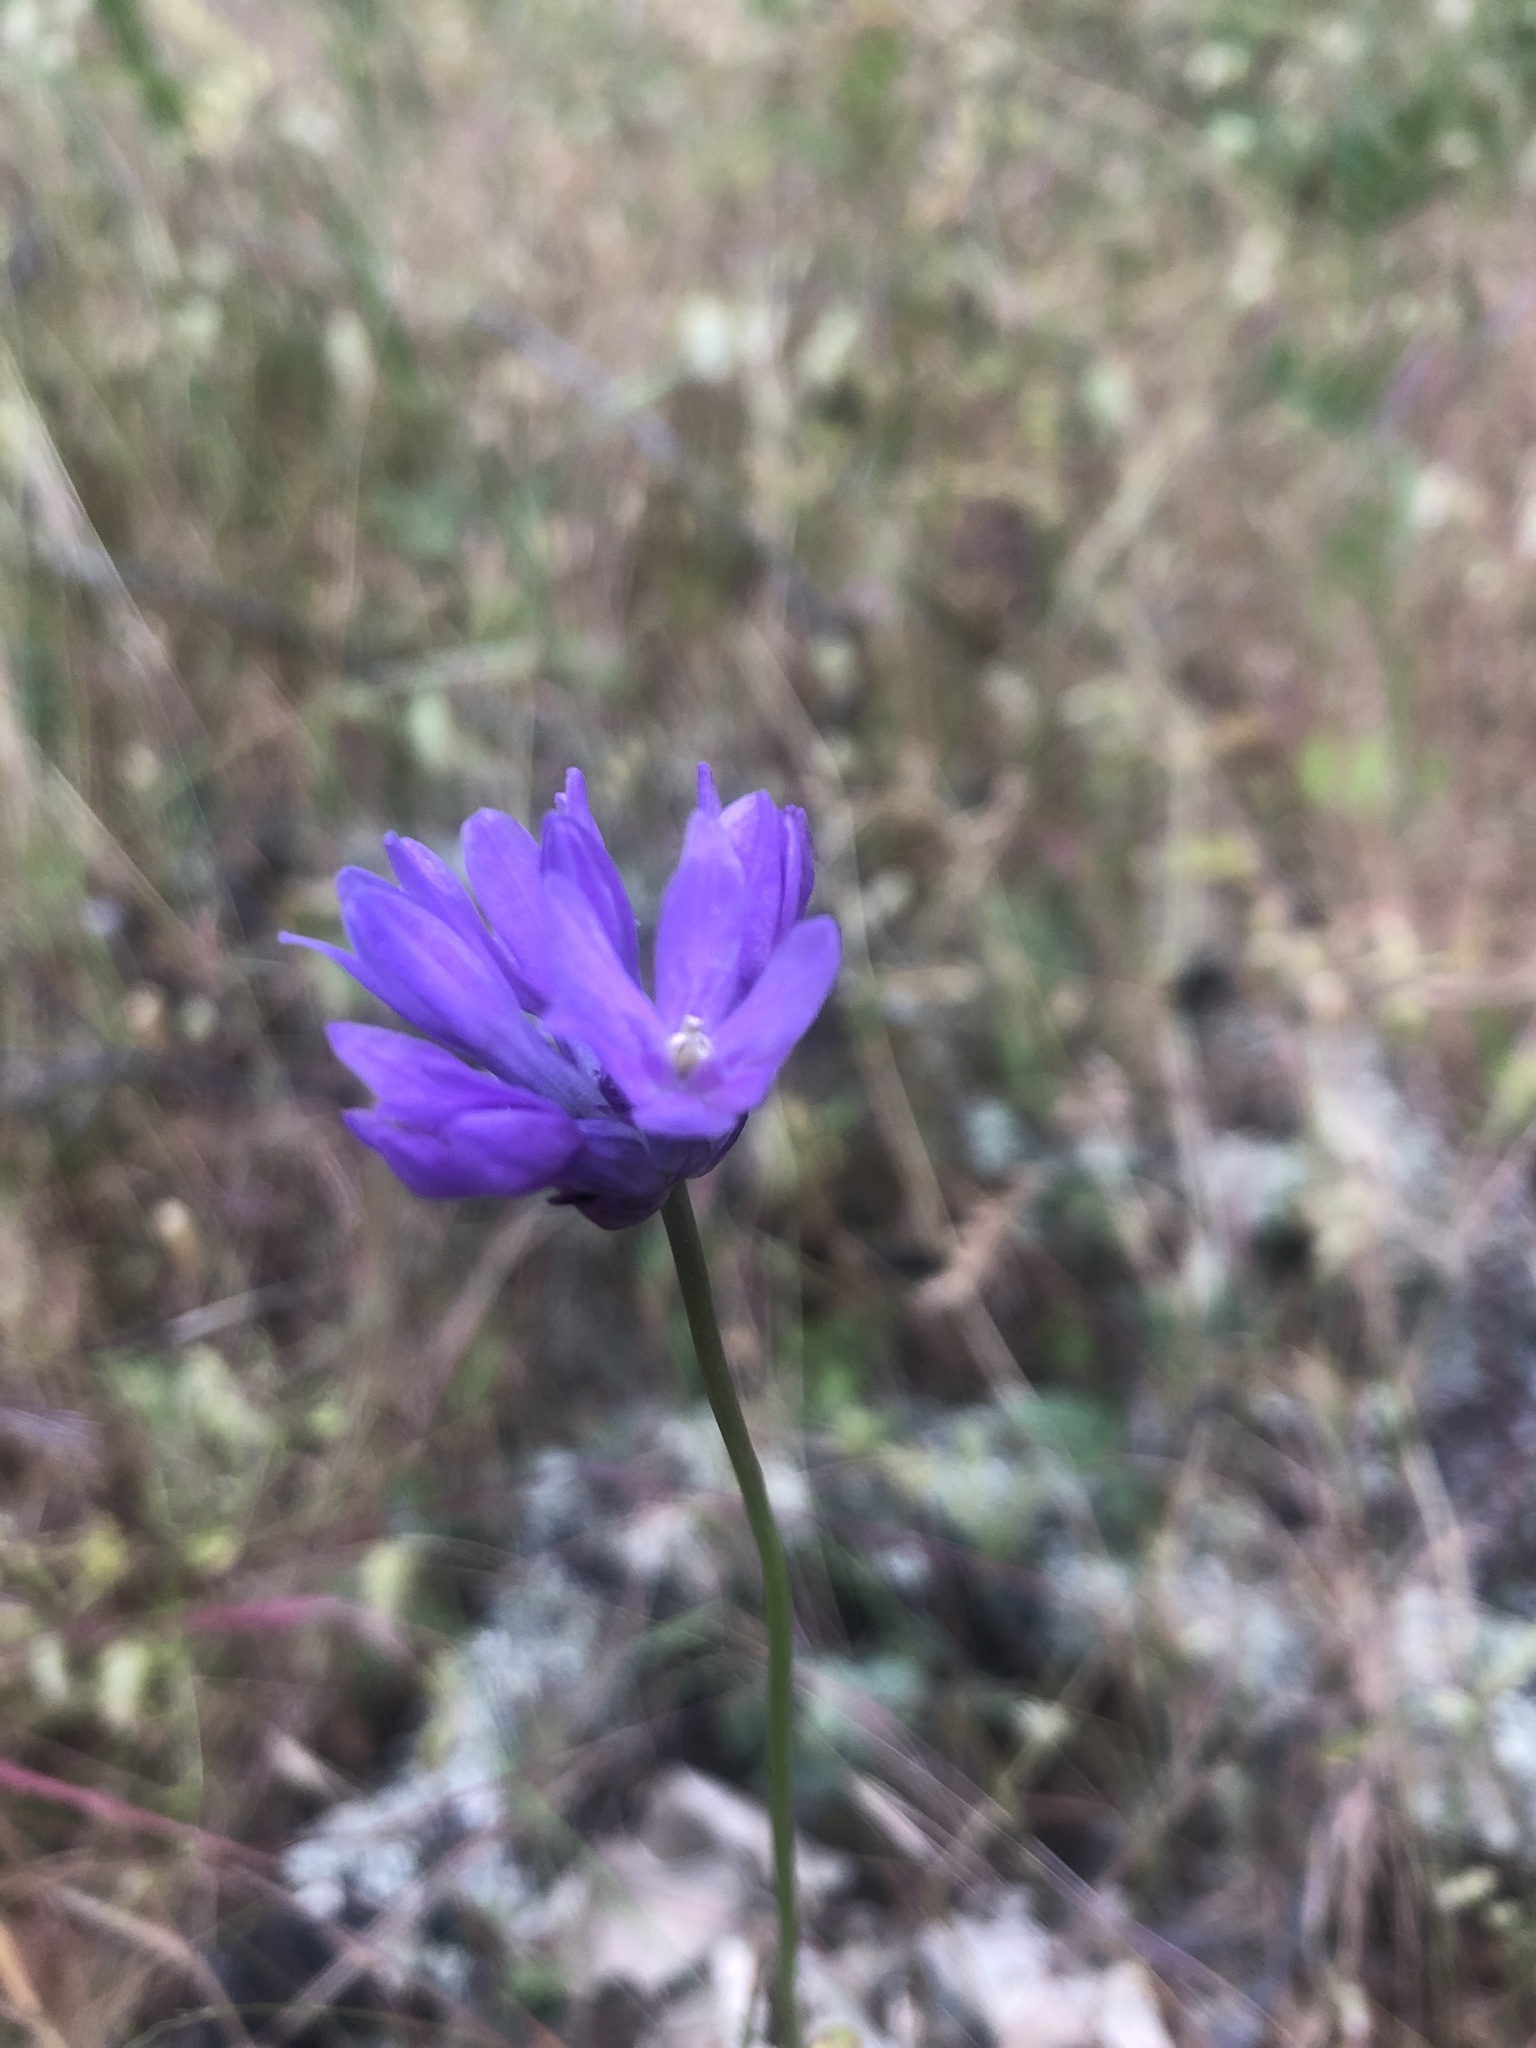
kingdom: Plantae
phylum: Tracheophyta
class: Liliopsida
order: Asparagales
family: Asparagaceae
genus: Dichelostemma
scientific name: Dichelostemma congestum
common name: Fork-tooth ookow
